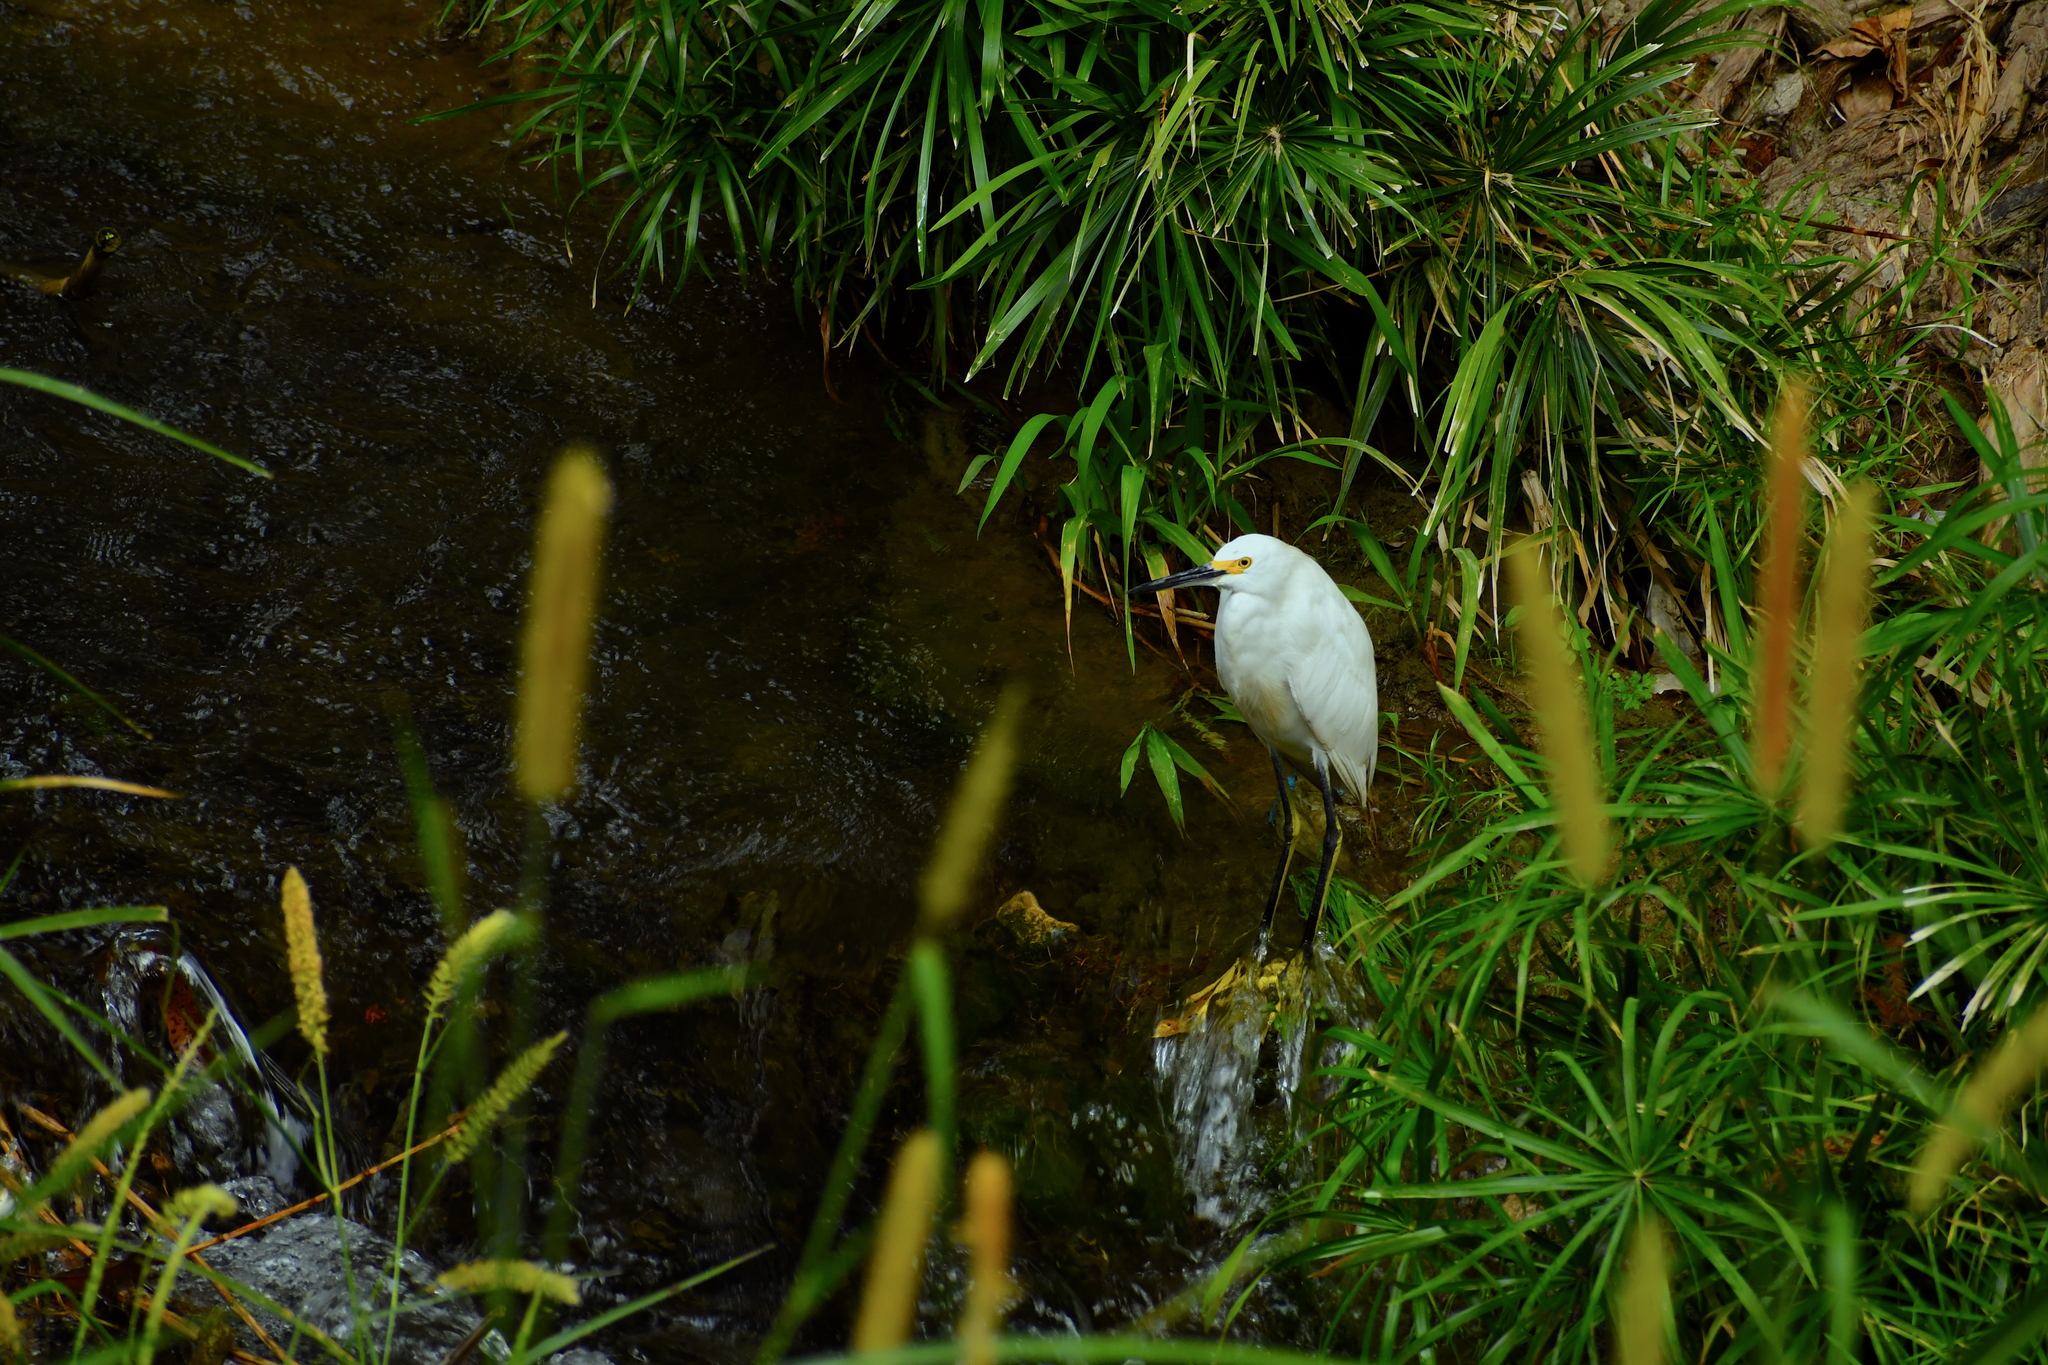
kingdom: Animalia
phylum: Chordata
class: Aves
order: Pelecaniformes
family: Ardeidae
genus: Egretta
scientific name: Egretta thula
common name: Snowy egret
